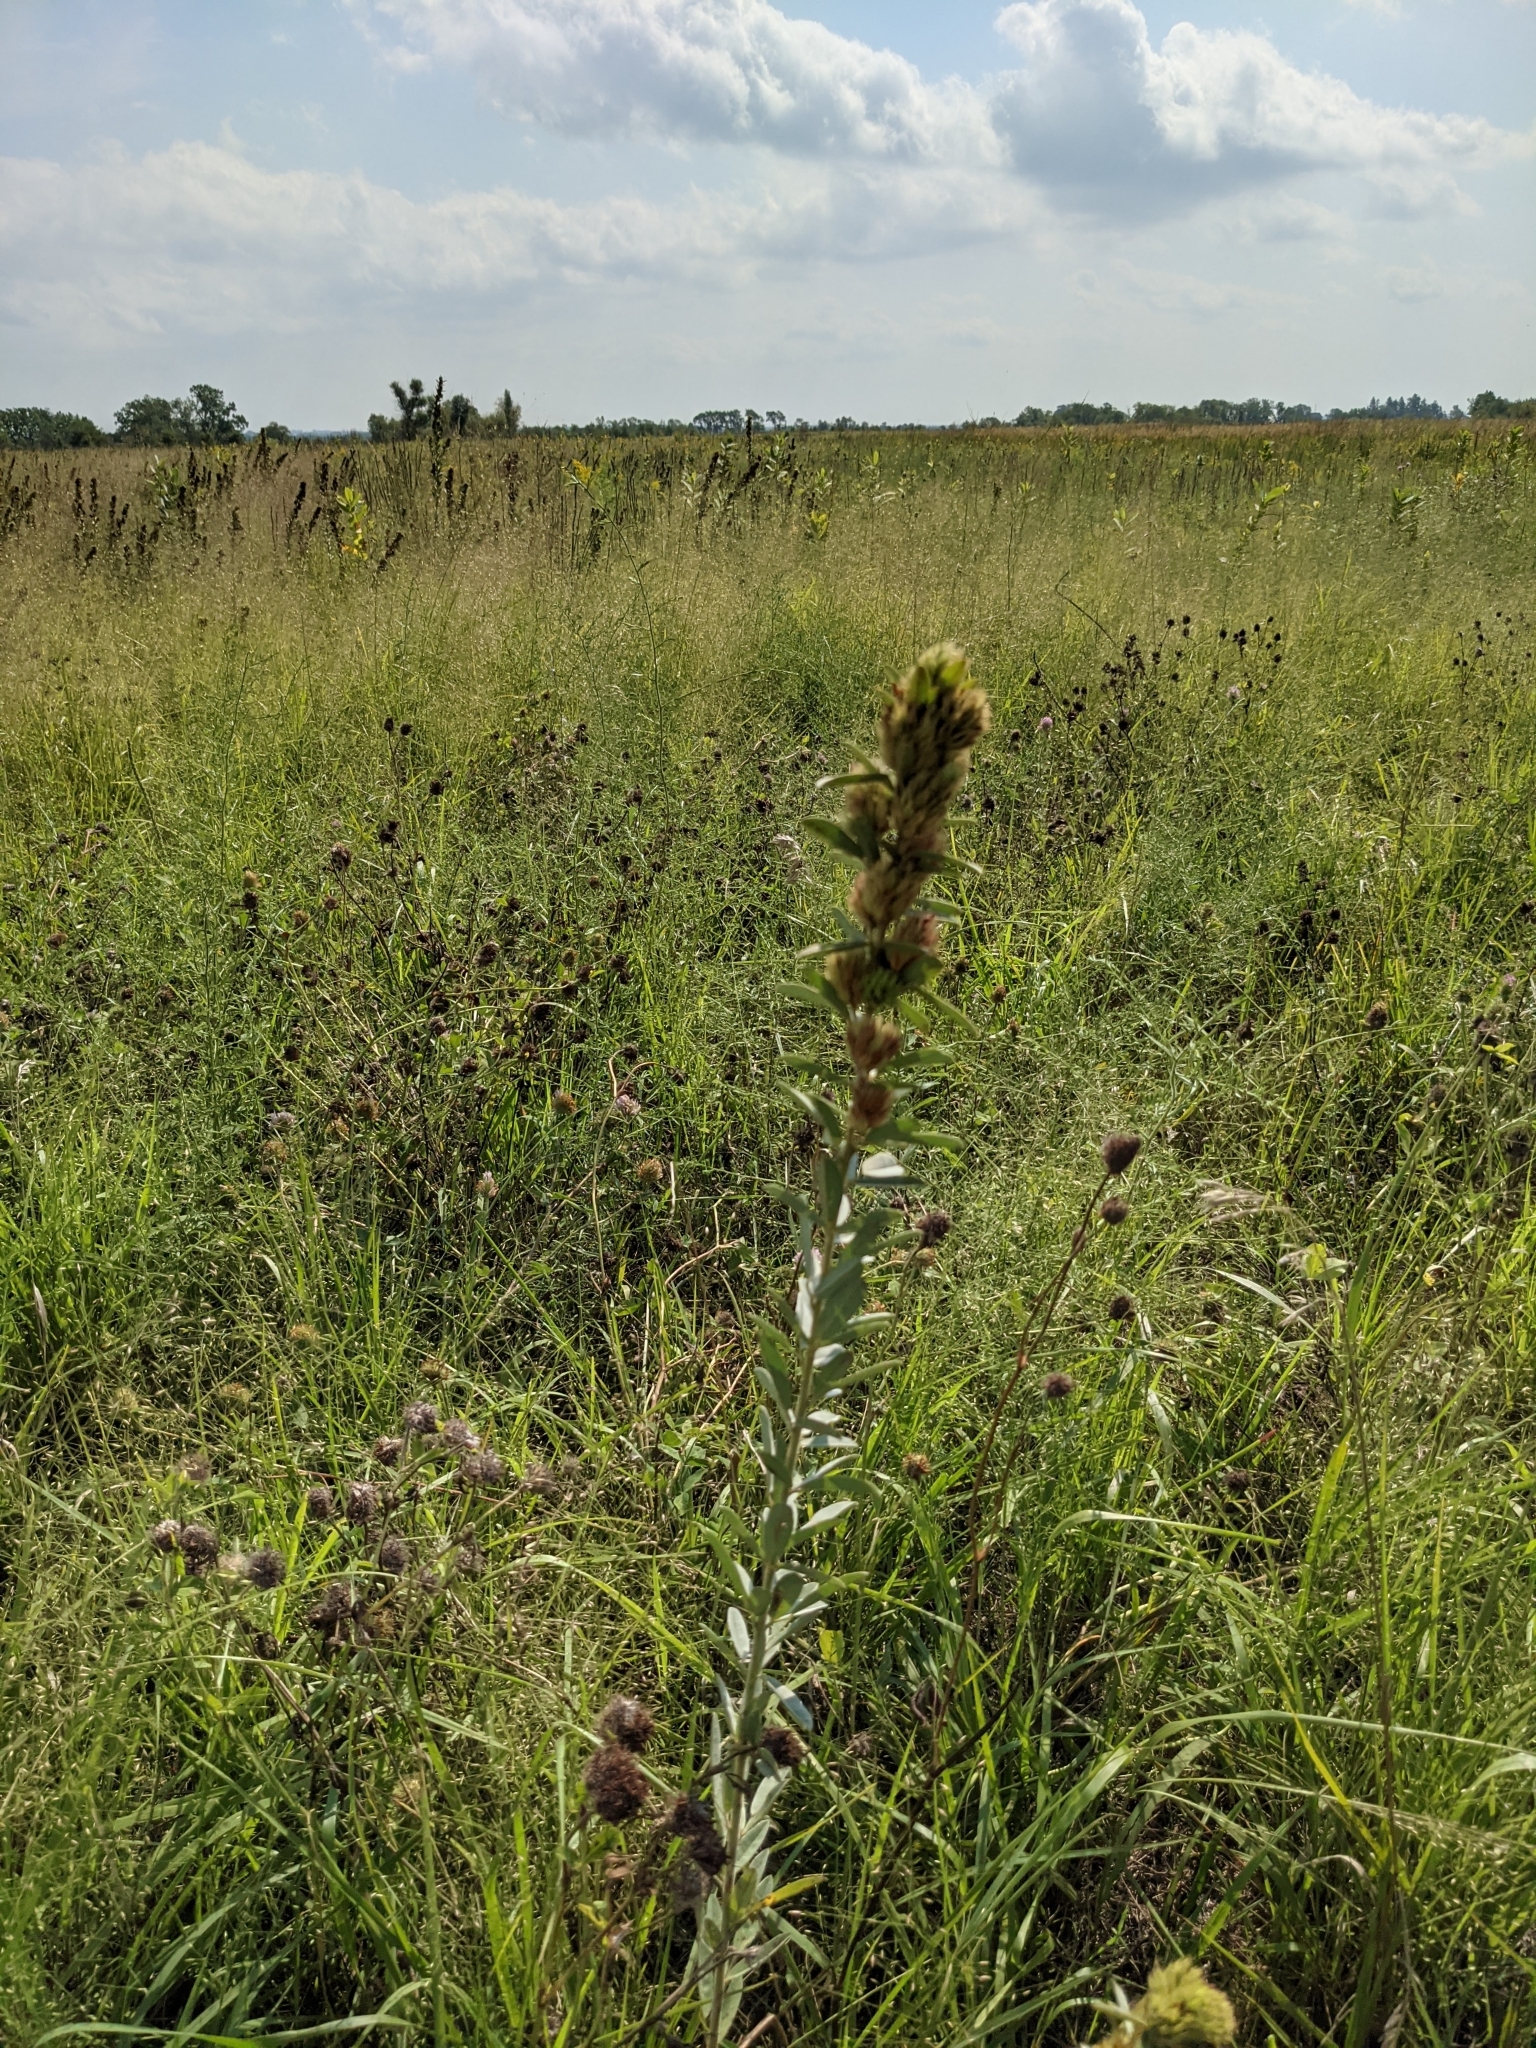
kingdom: Plantae
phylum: Tracheophyta
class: Magnoliopsida
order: Fabales
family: Fabaceae
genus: Lespedeza
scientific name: Lespedeza capitata
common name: Dusty clover
